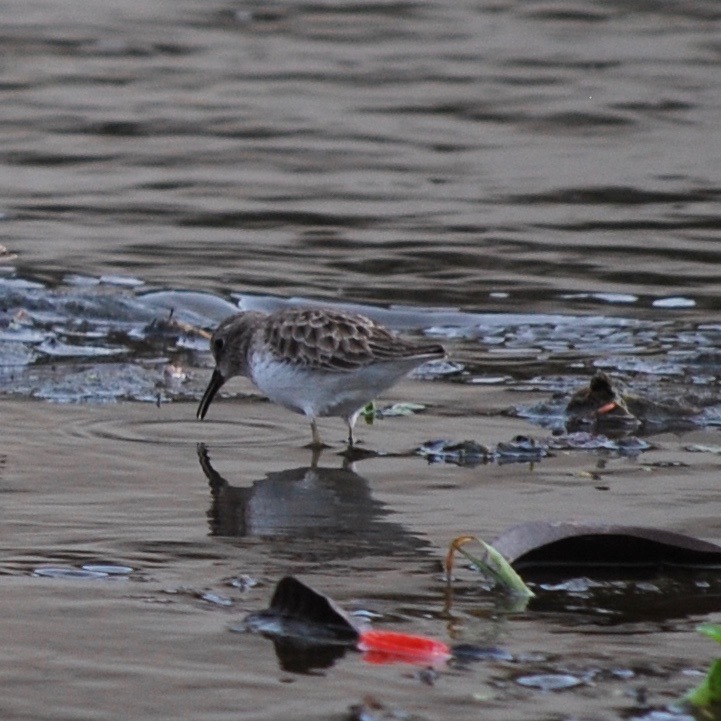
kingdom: Animalia
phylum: Chordata
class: Aves
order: Charadriiformes
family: Scolopacidae
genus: Calidris
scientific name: Calidris minutilla
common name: Least sandpiper
